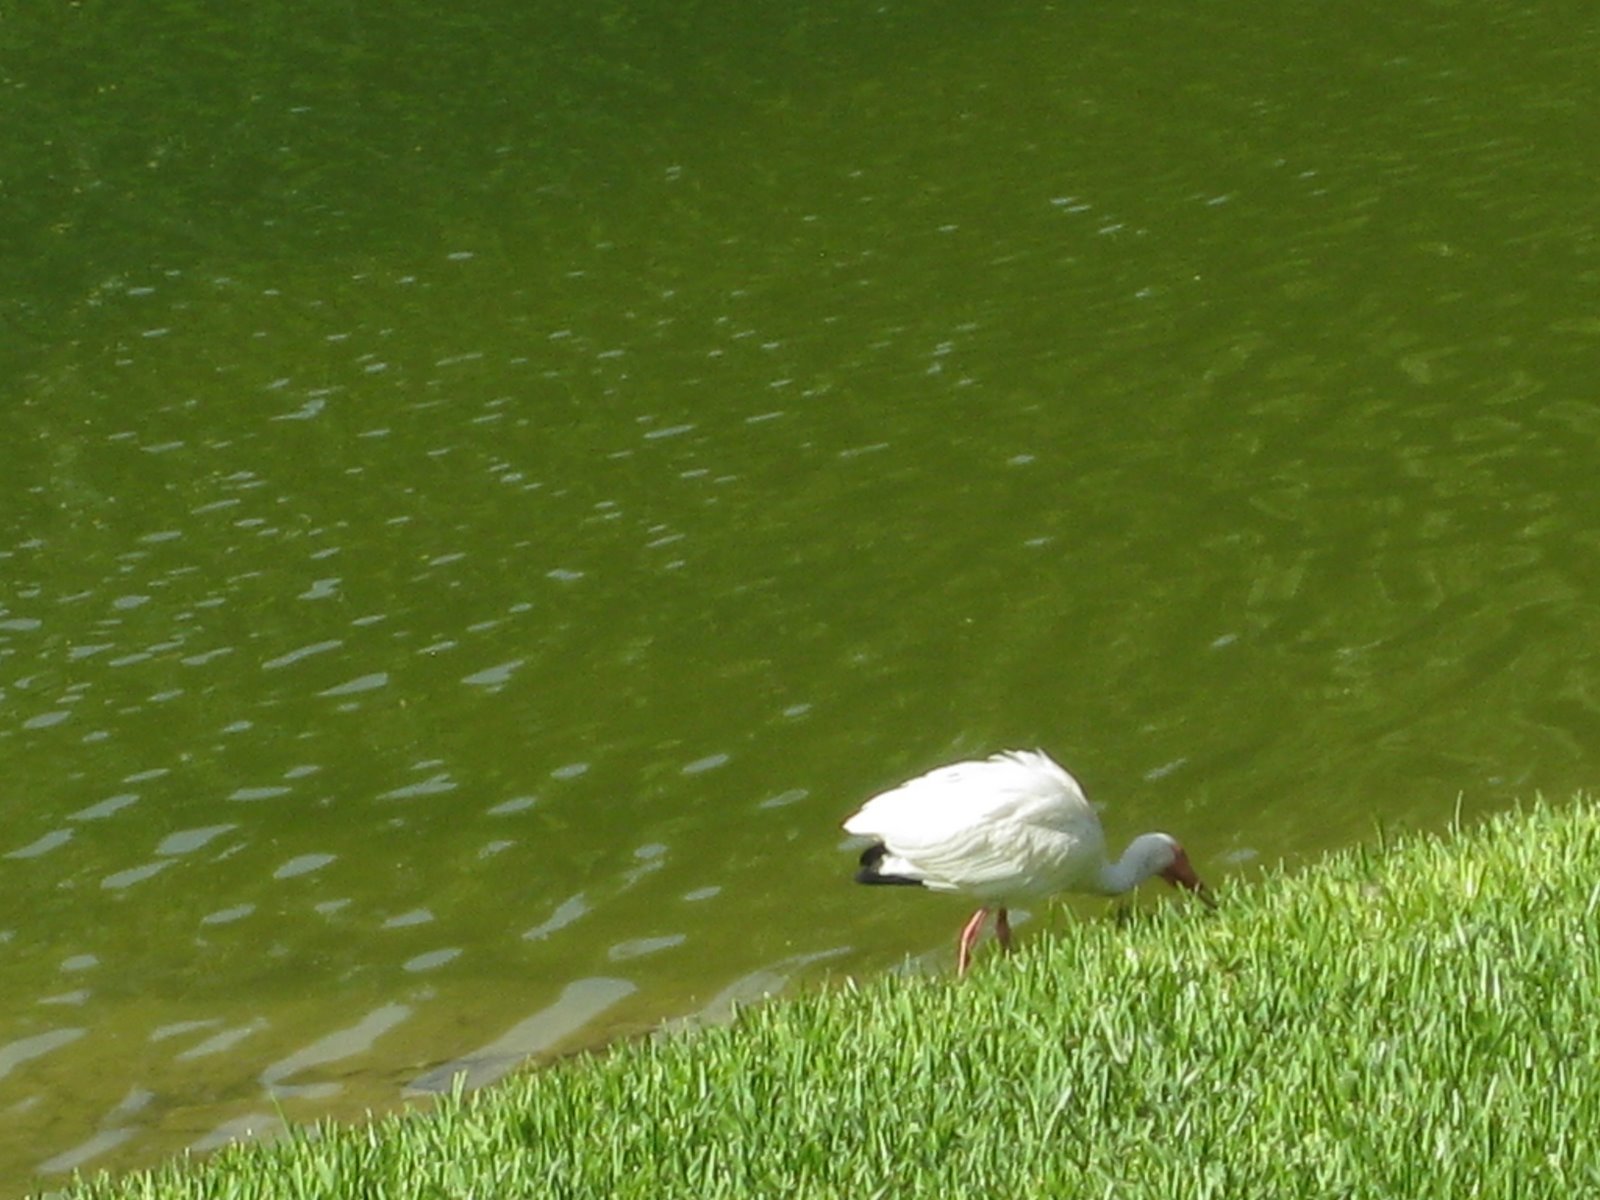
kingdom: Animalia
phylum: Chordata
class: Aves
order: Pelecaniformes
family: Threskiornithidae
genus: Eudocimus
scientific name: Eudocimus albus
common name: White ibis
